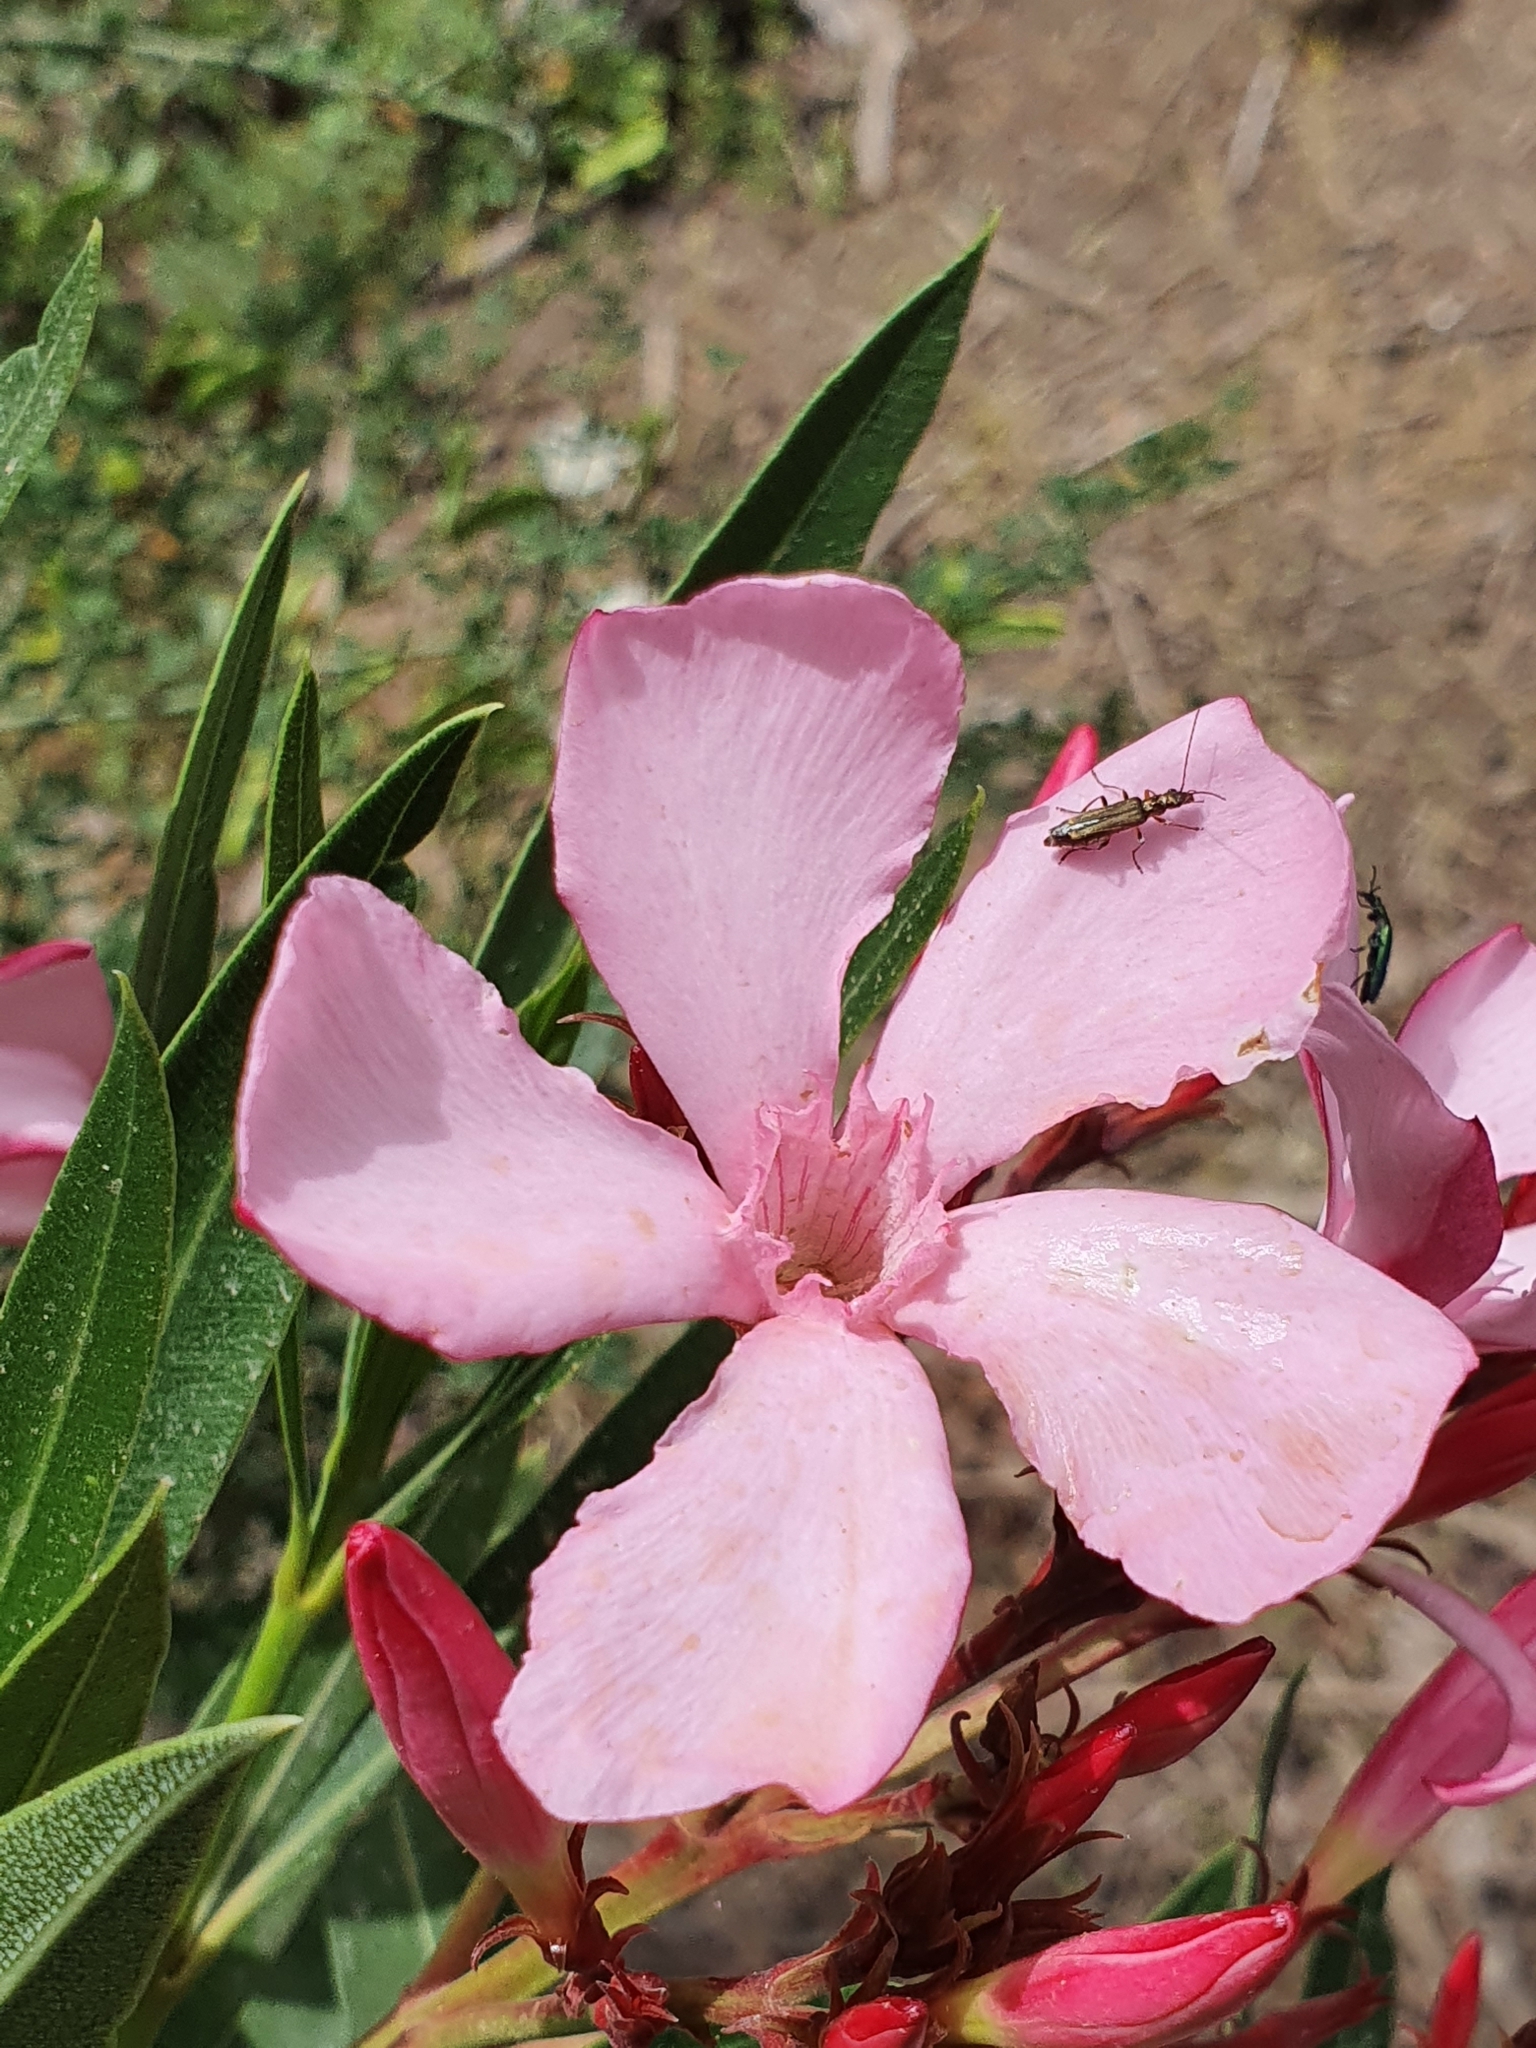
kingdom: Plantae
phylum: Tracheophyta
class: Magnoliopsida
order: Gentianales
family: Apocynaceae
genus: Nerium
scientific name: Nerium oleander
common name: Oleander
